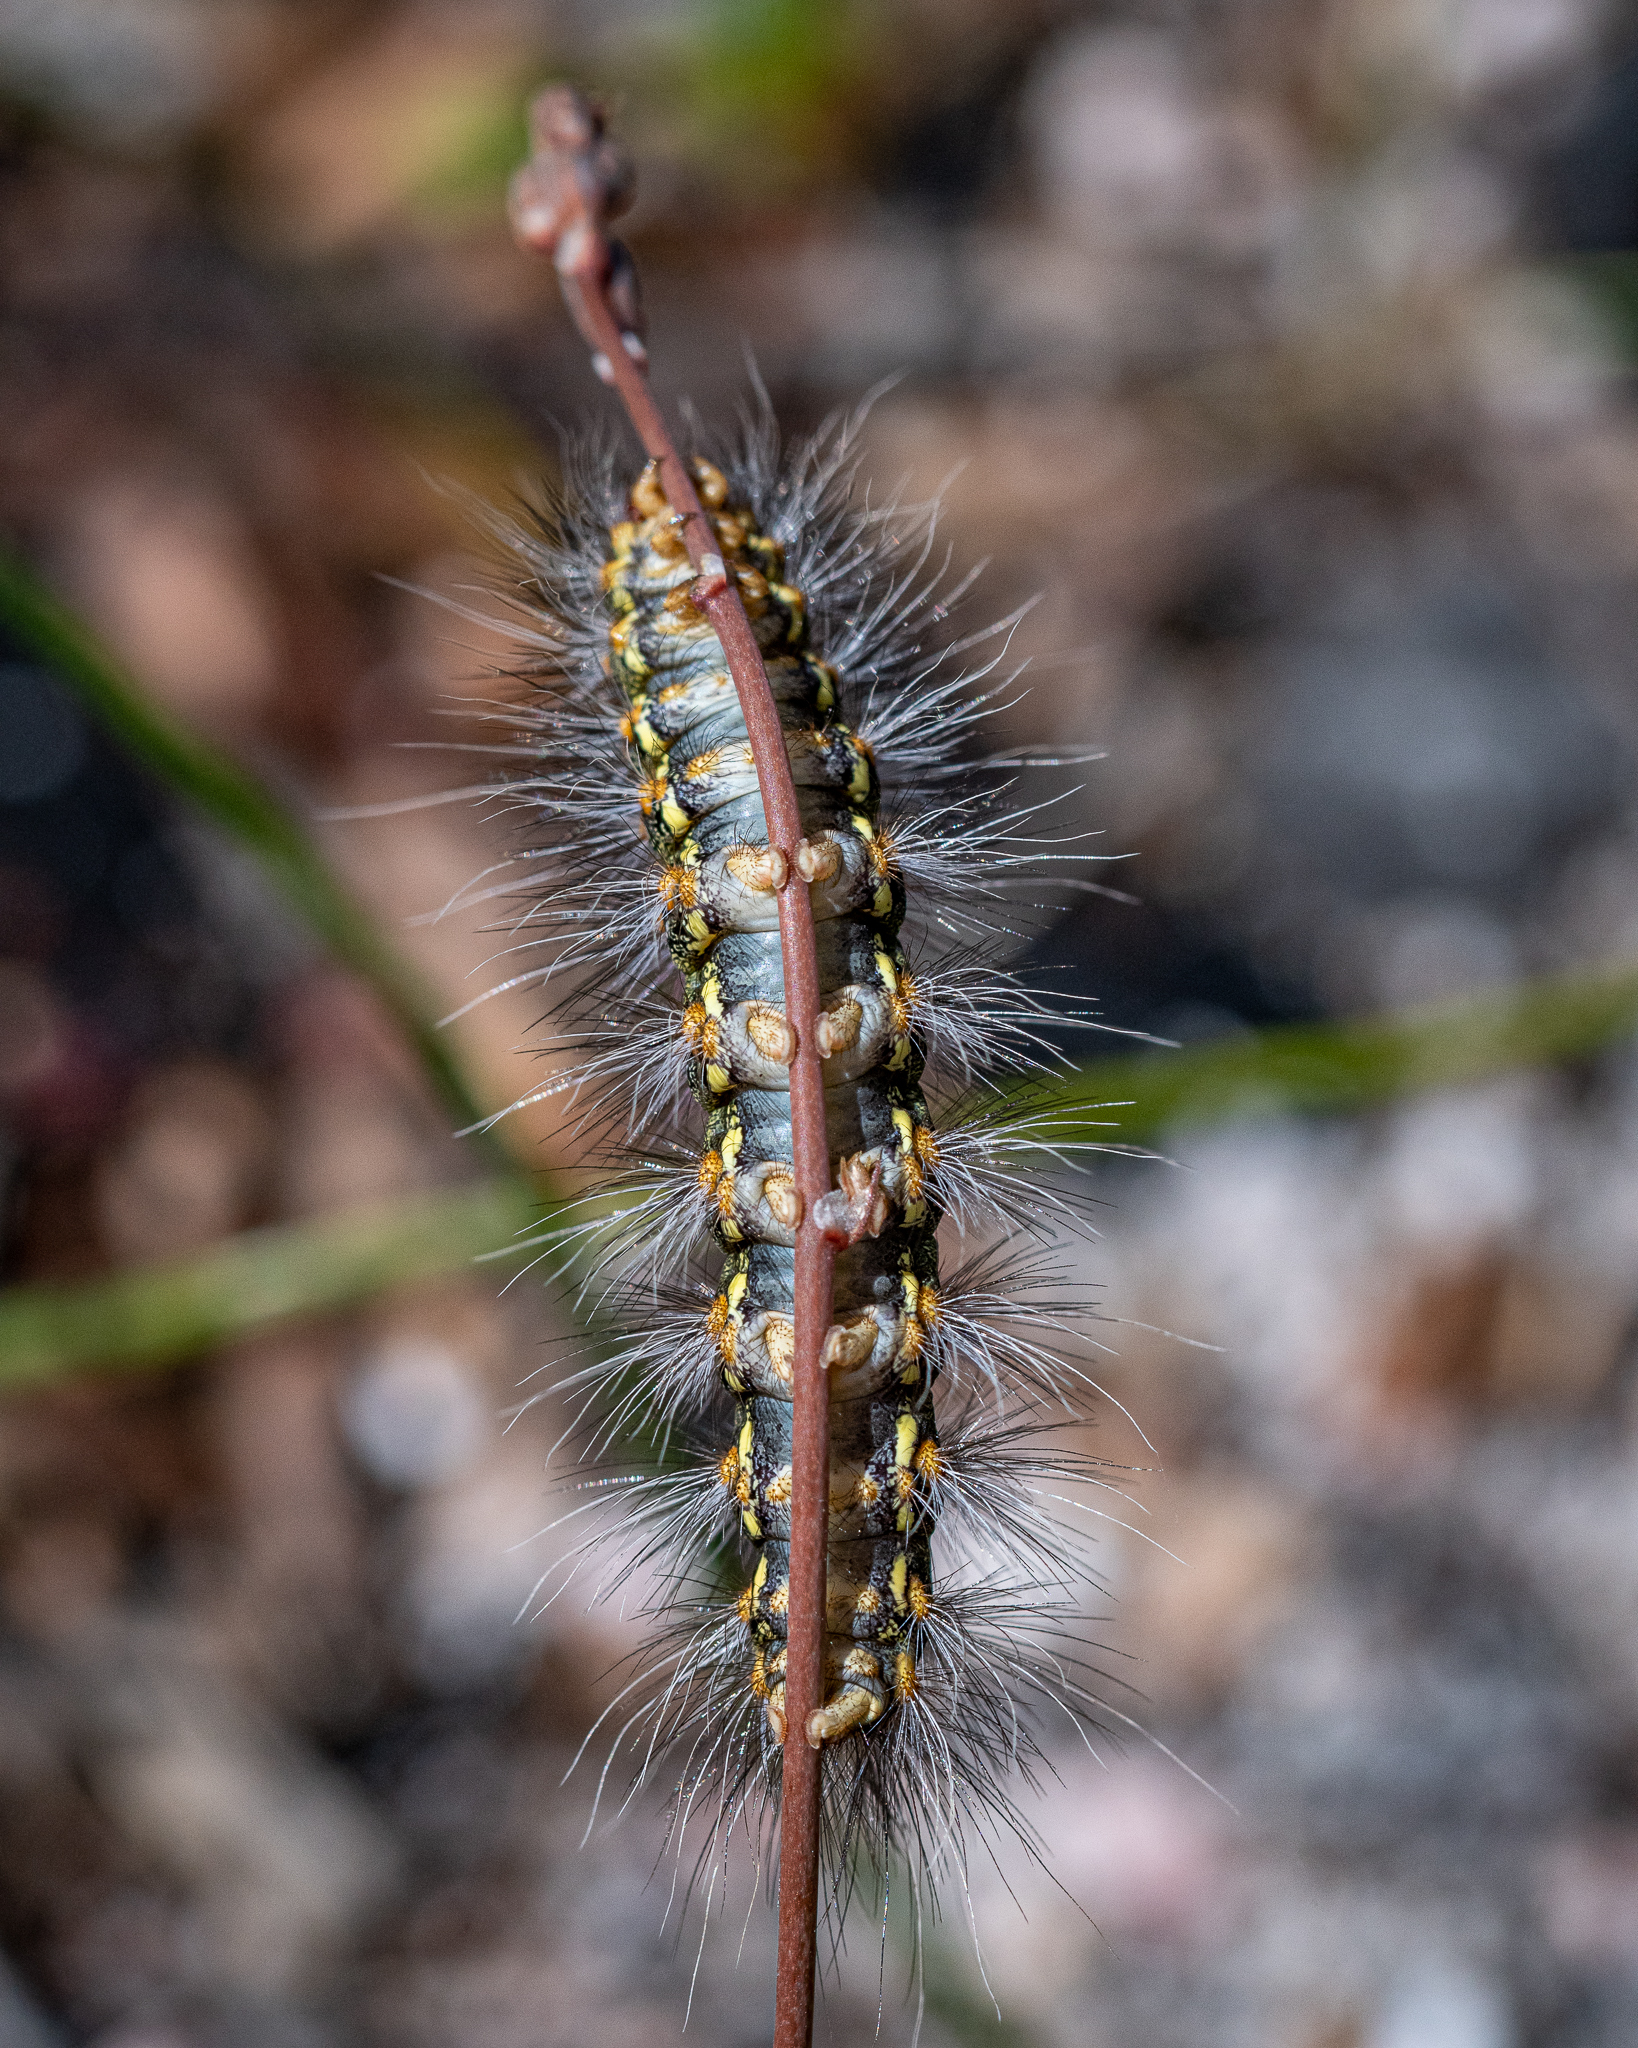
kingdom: Animalia
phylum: Arthropoda
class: Insecta
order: Lepidoptera
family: Erebidae
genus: Paralacydes
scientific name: Paralacydes vocula
